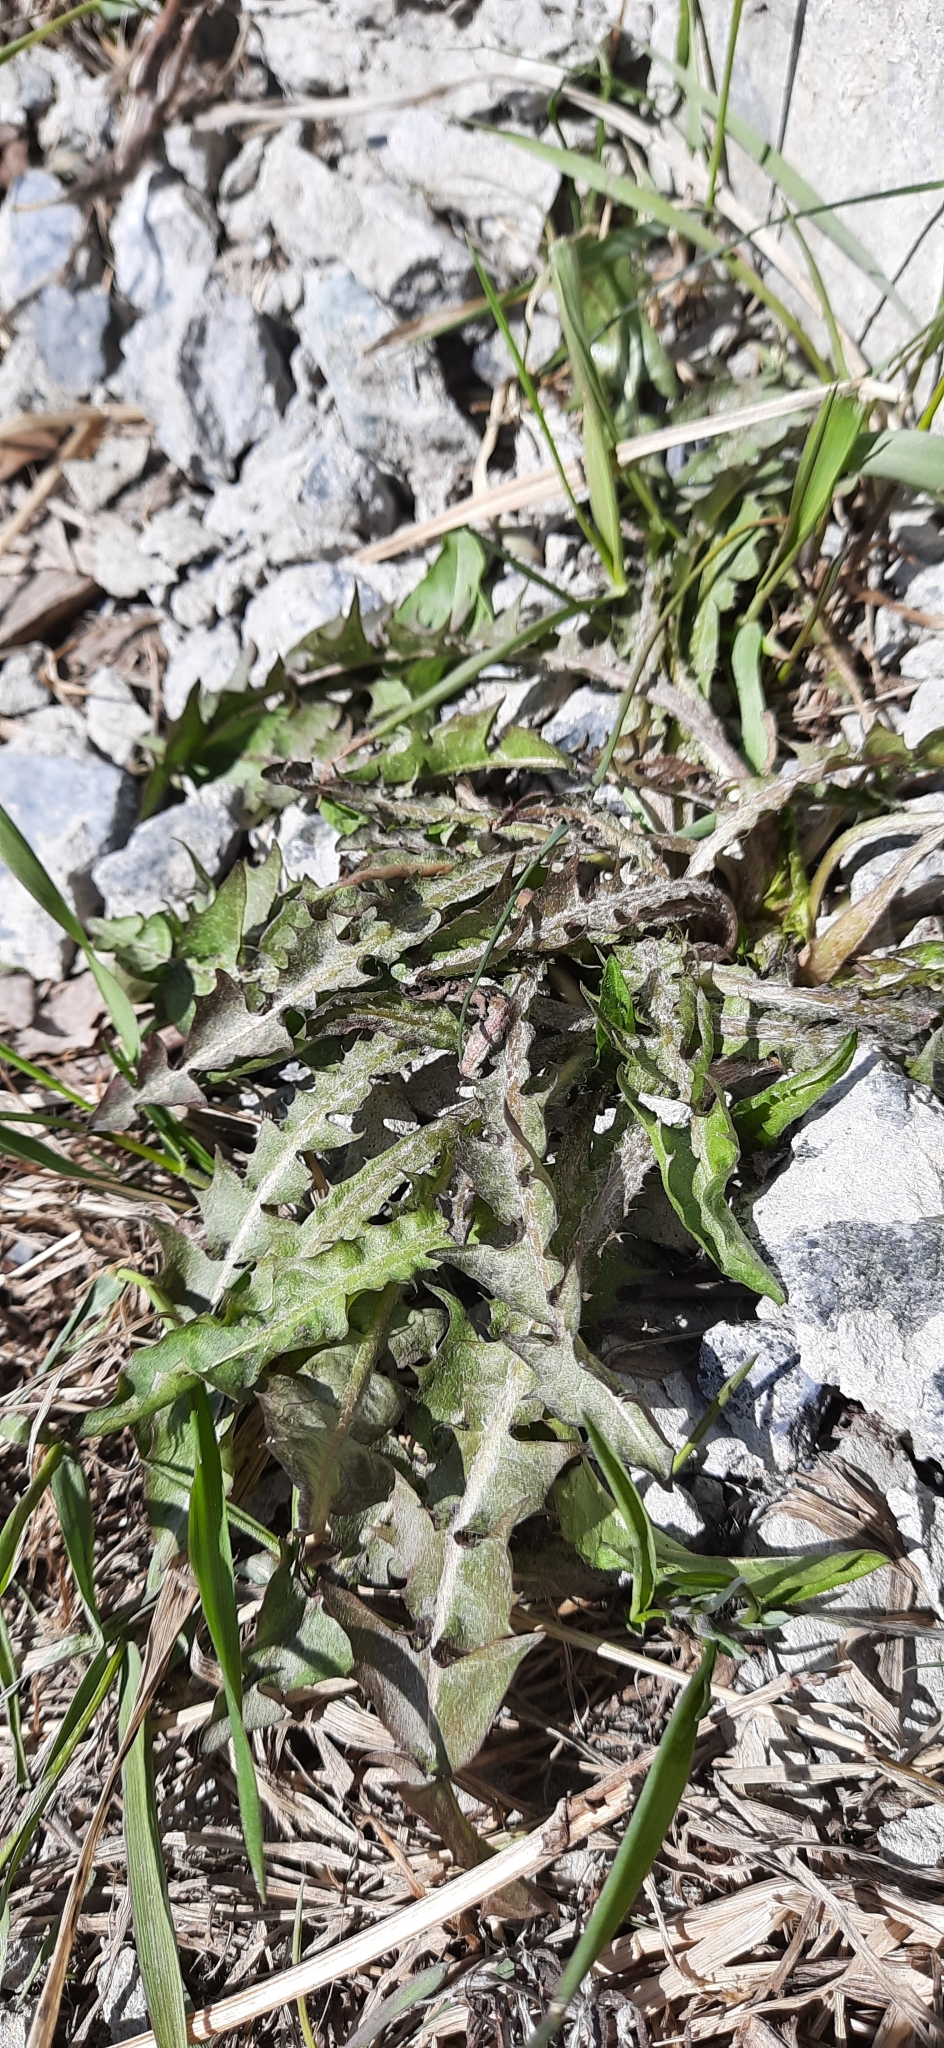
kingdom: Plantae
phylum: Tracheophyta
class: Magnoliopsida
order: Asterales
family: Asteraceae
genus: Taraxacum
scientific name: Taraxacum officinale
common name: Common dandelion
